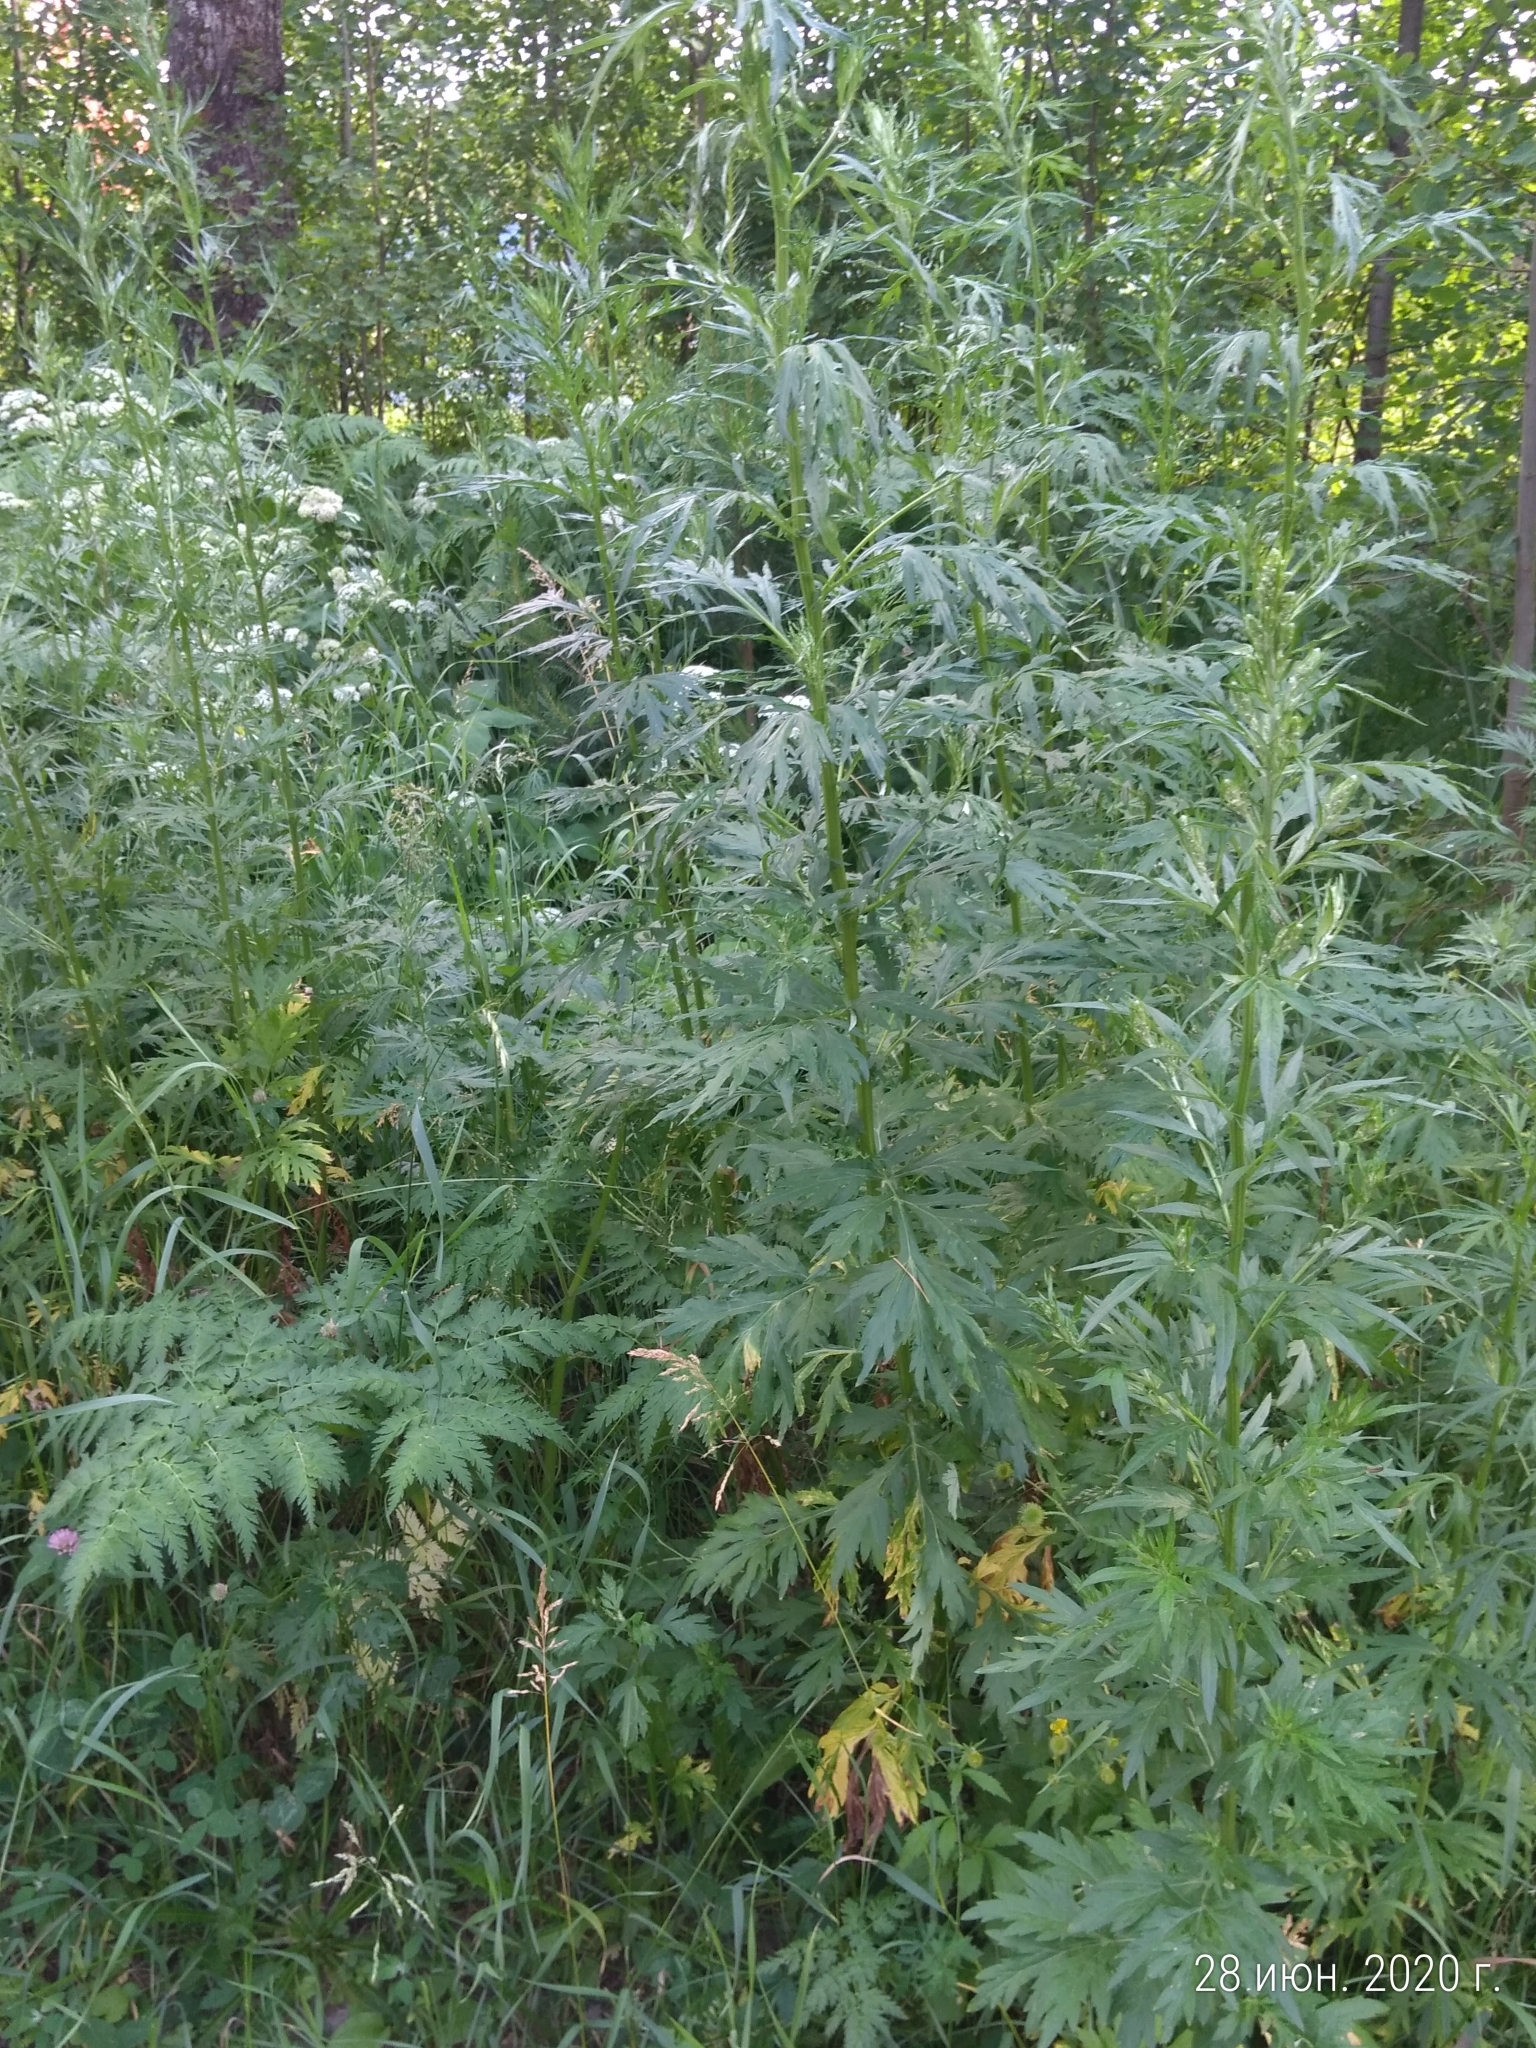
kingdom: Plantae
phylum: Tracheophyta
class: Magnoliopsida
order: Asterales
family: Asteraceae
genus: Artemisia
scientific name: Artemisia vulgaris
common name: Mugwort
